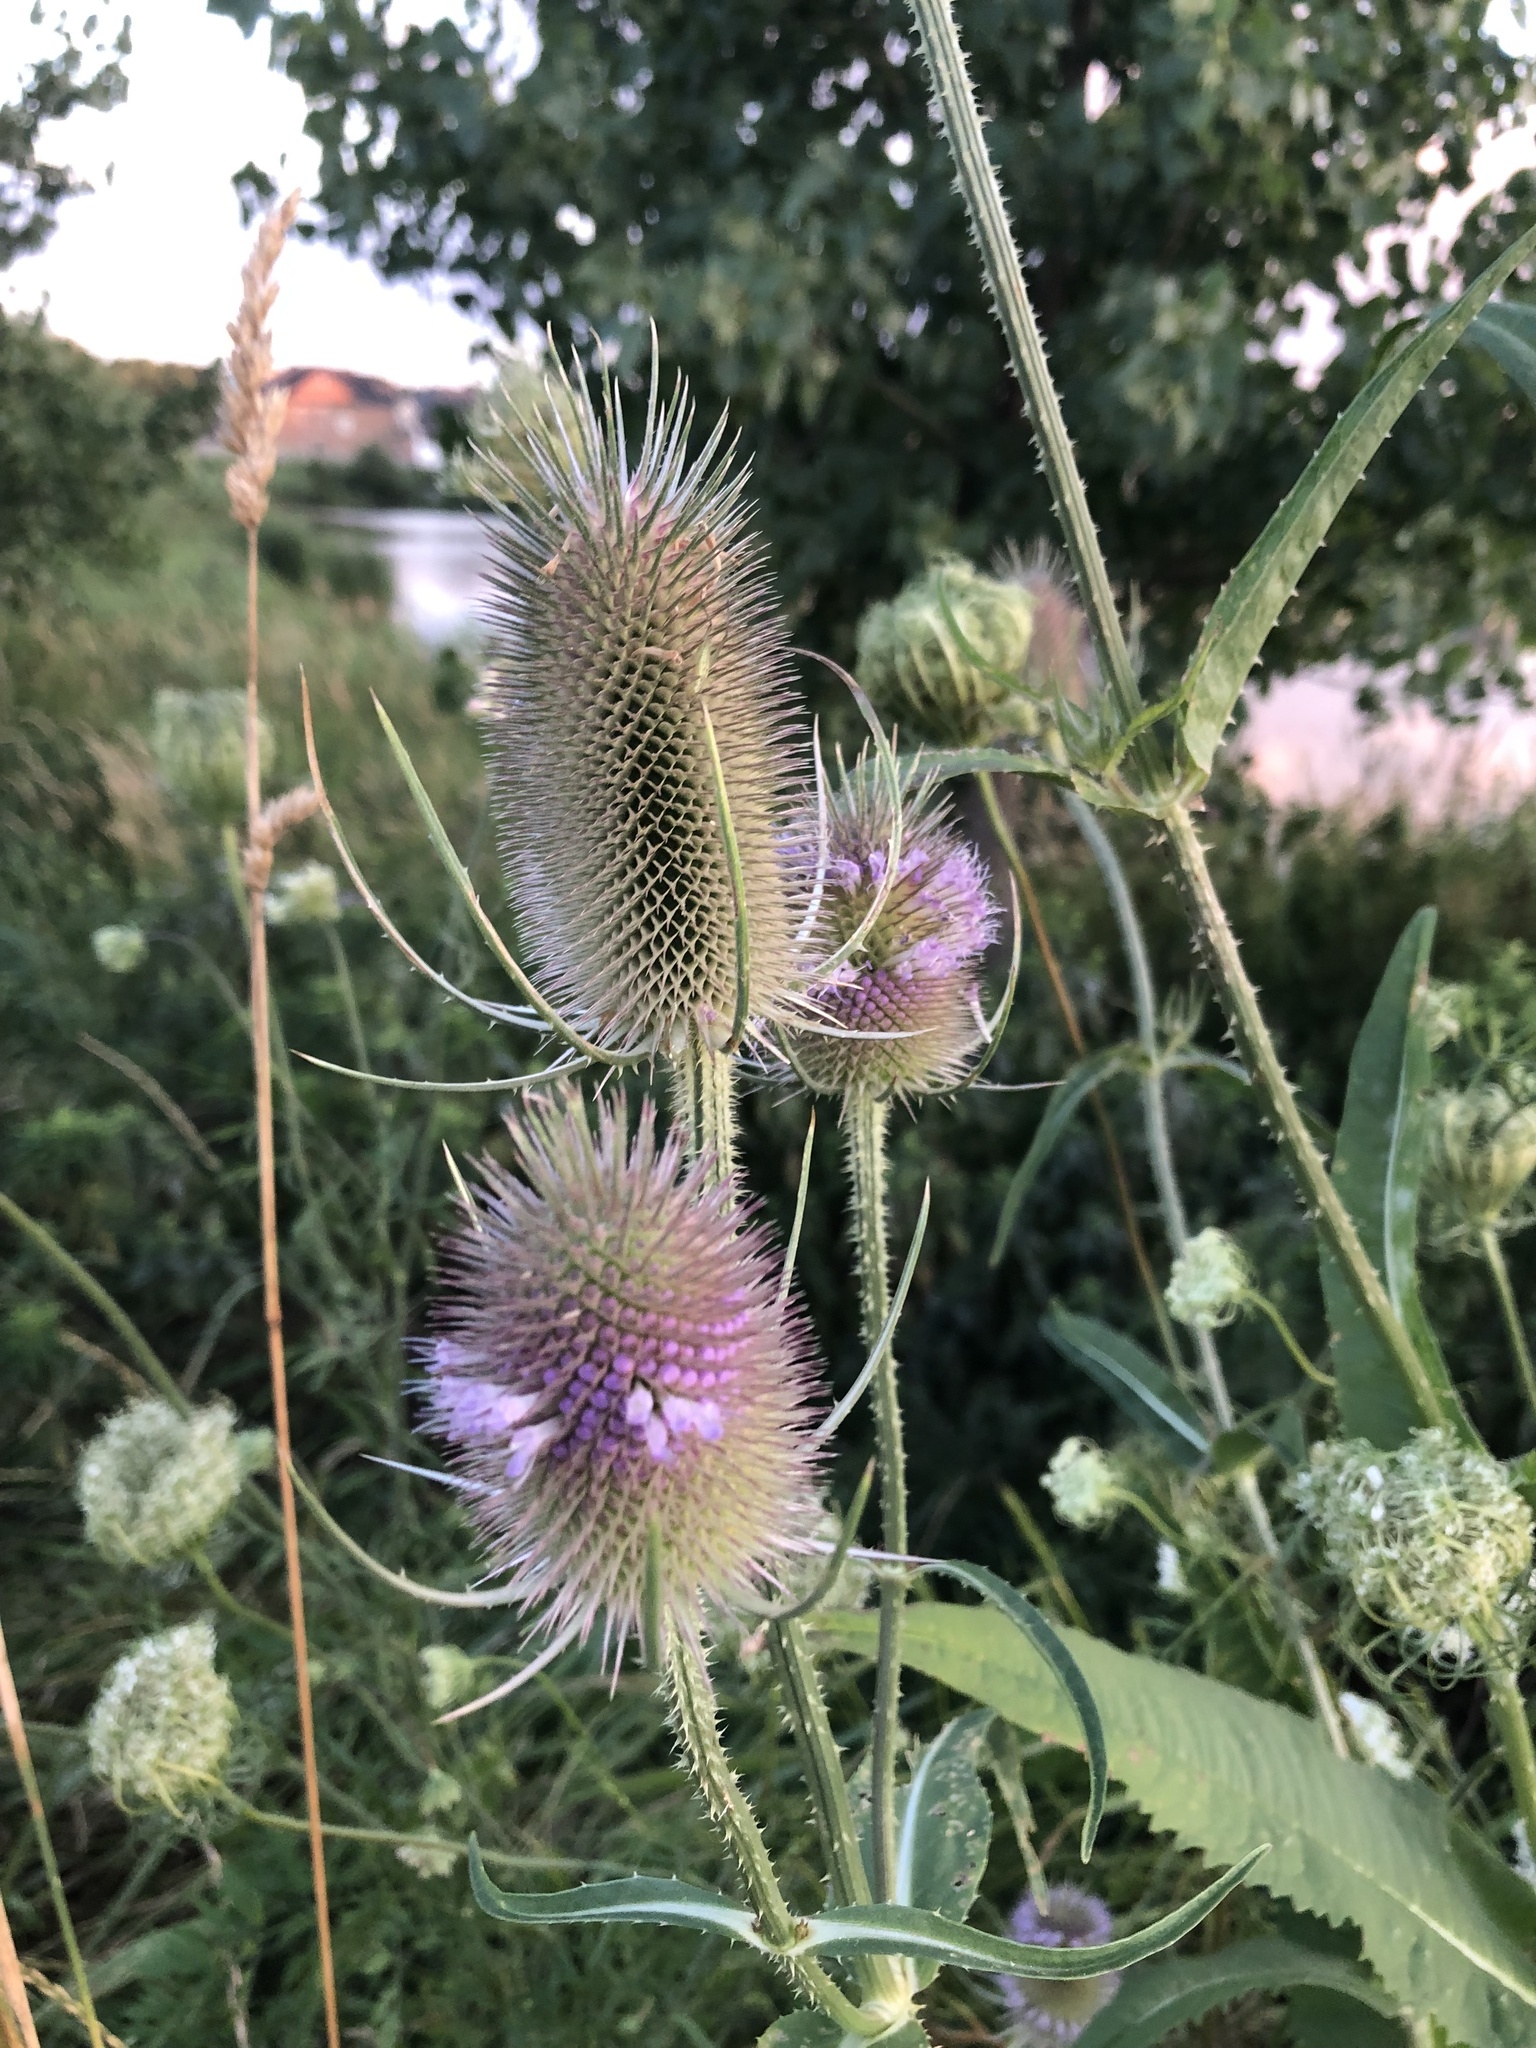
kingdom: Plantae
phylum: Tracheophyta
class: Magnoliopsida
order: Dipsacales
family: Caprifoliaceae
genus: Dipsacus
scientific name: Dipsacus fullonum
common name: Teasel
